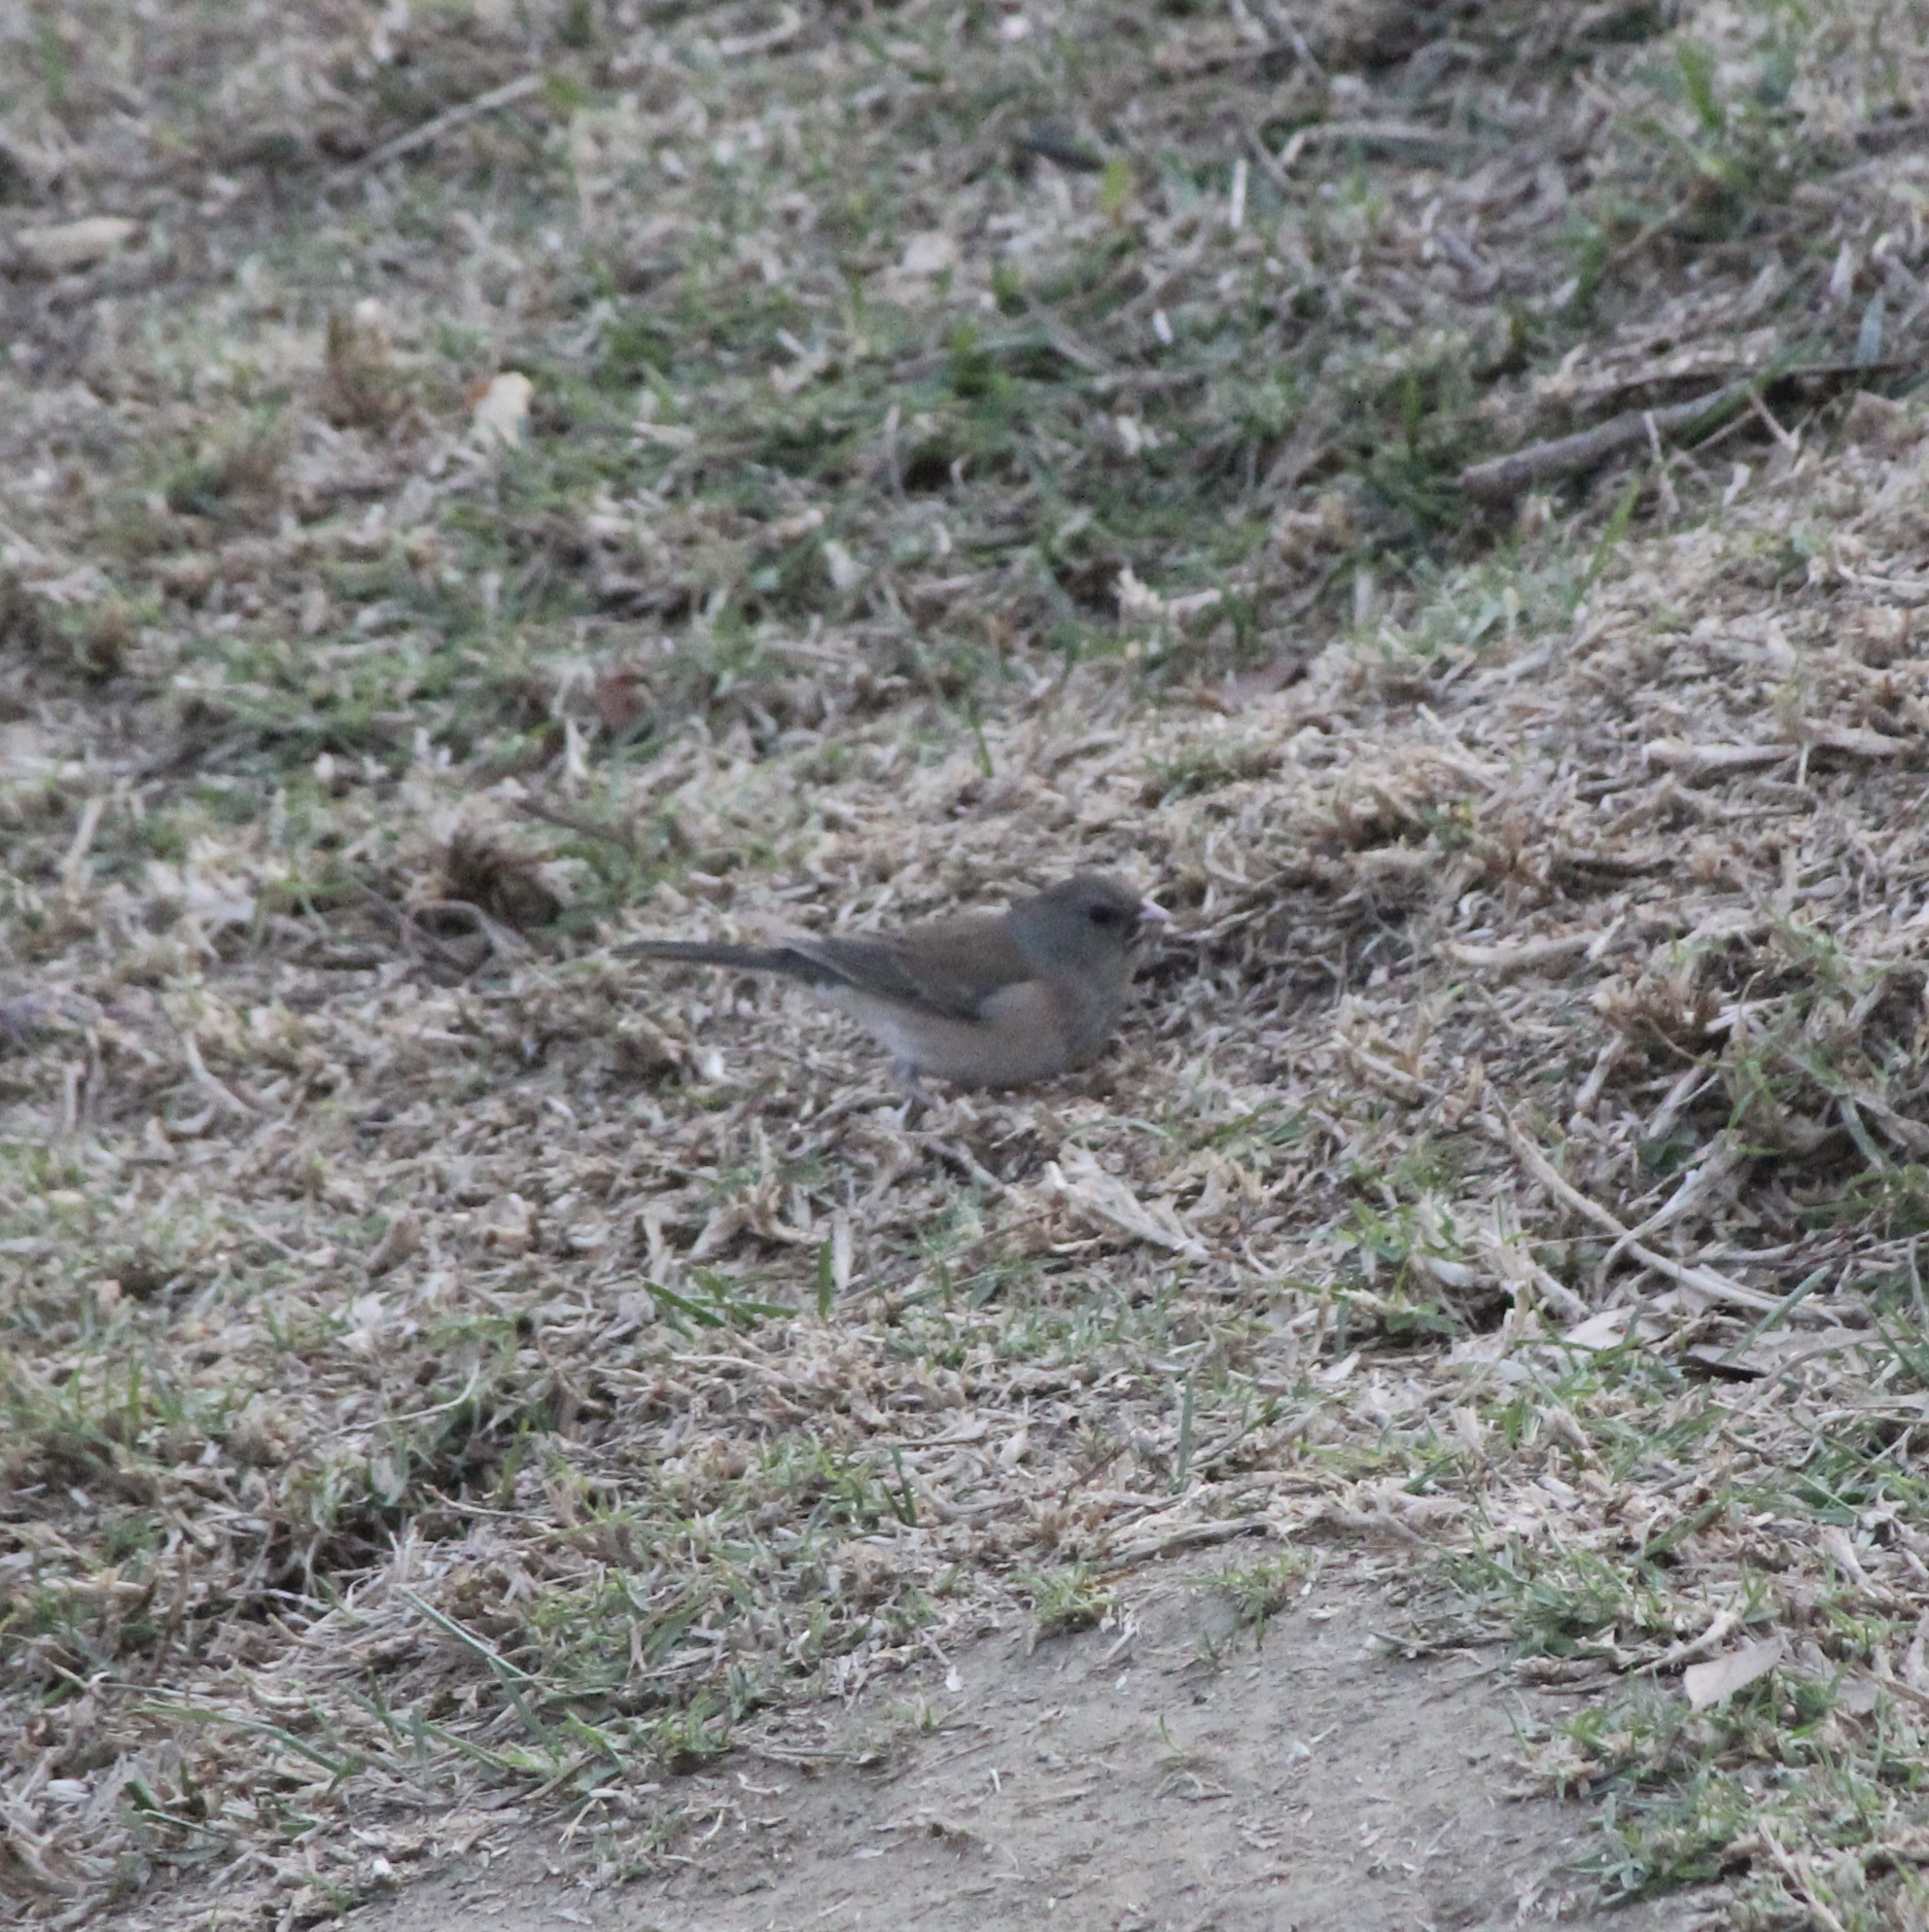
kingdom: Animalia
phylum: Chordata
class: Aves
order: Passeriformes
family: Passerellidae
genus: Junco
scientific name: Junco hyemalis
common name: Dark-eyed junco
